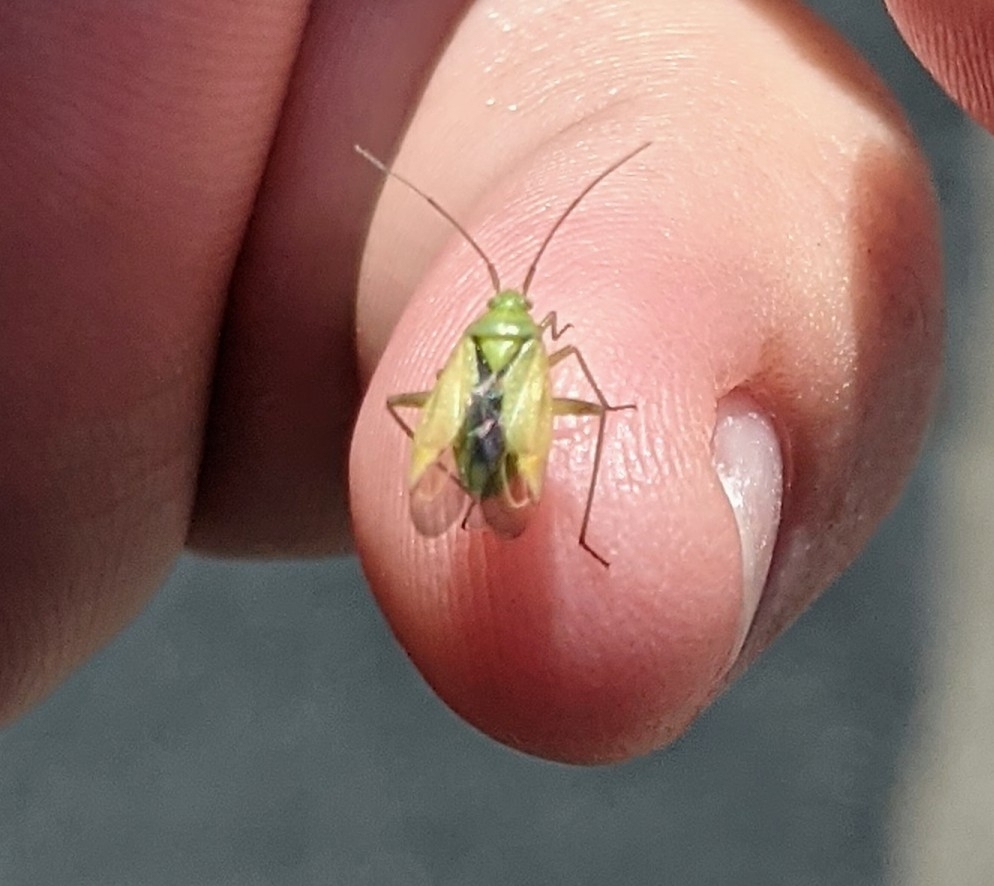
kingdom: Animalia
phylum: Arthropoda
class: Insecta
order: Hemiptera
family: Miridae
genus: Closterotomus
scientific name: Closterotomus norvegicus
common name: Plant bug
